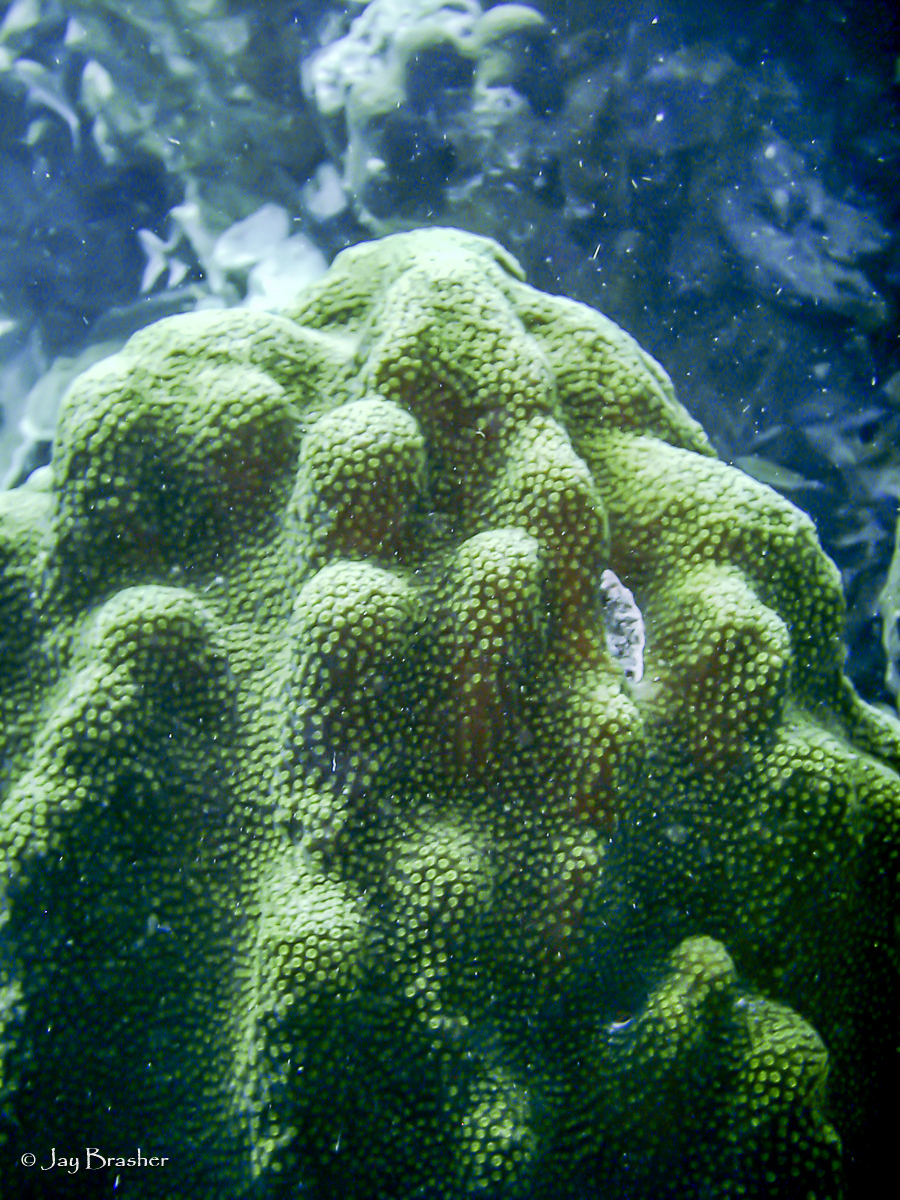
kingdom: Animalia
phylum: Cnidaria
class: Anthozoa
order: Scleractinia
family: Merulinidae
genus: Orbicella
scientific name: Orbicella faveolata
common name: Mountainous star coral
